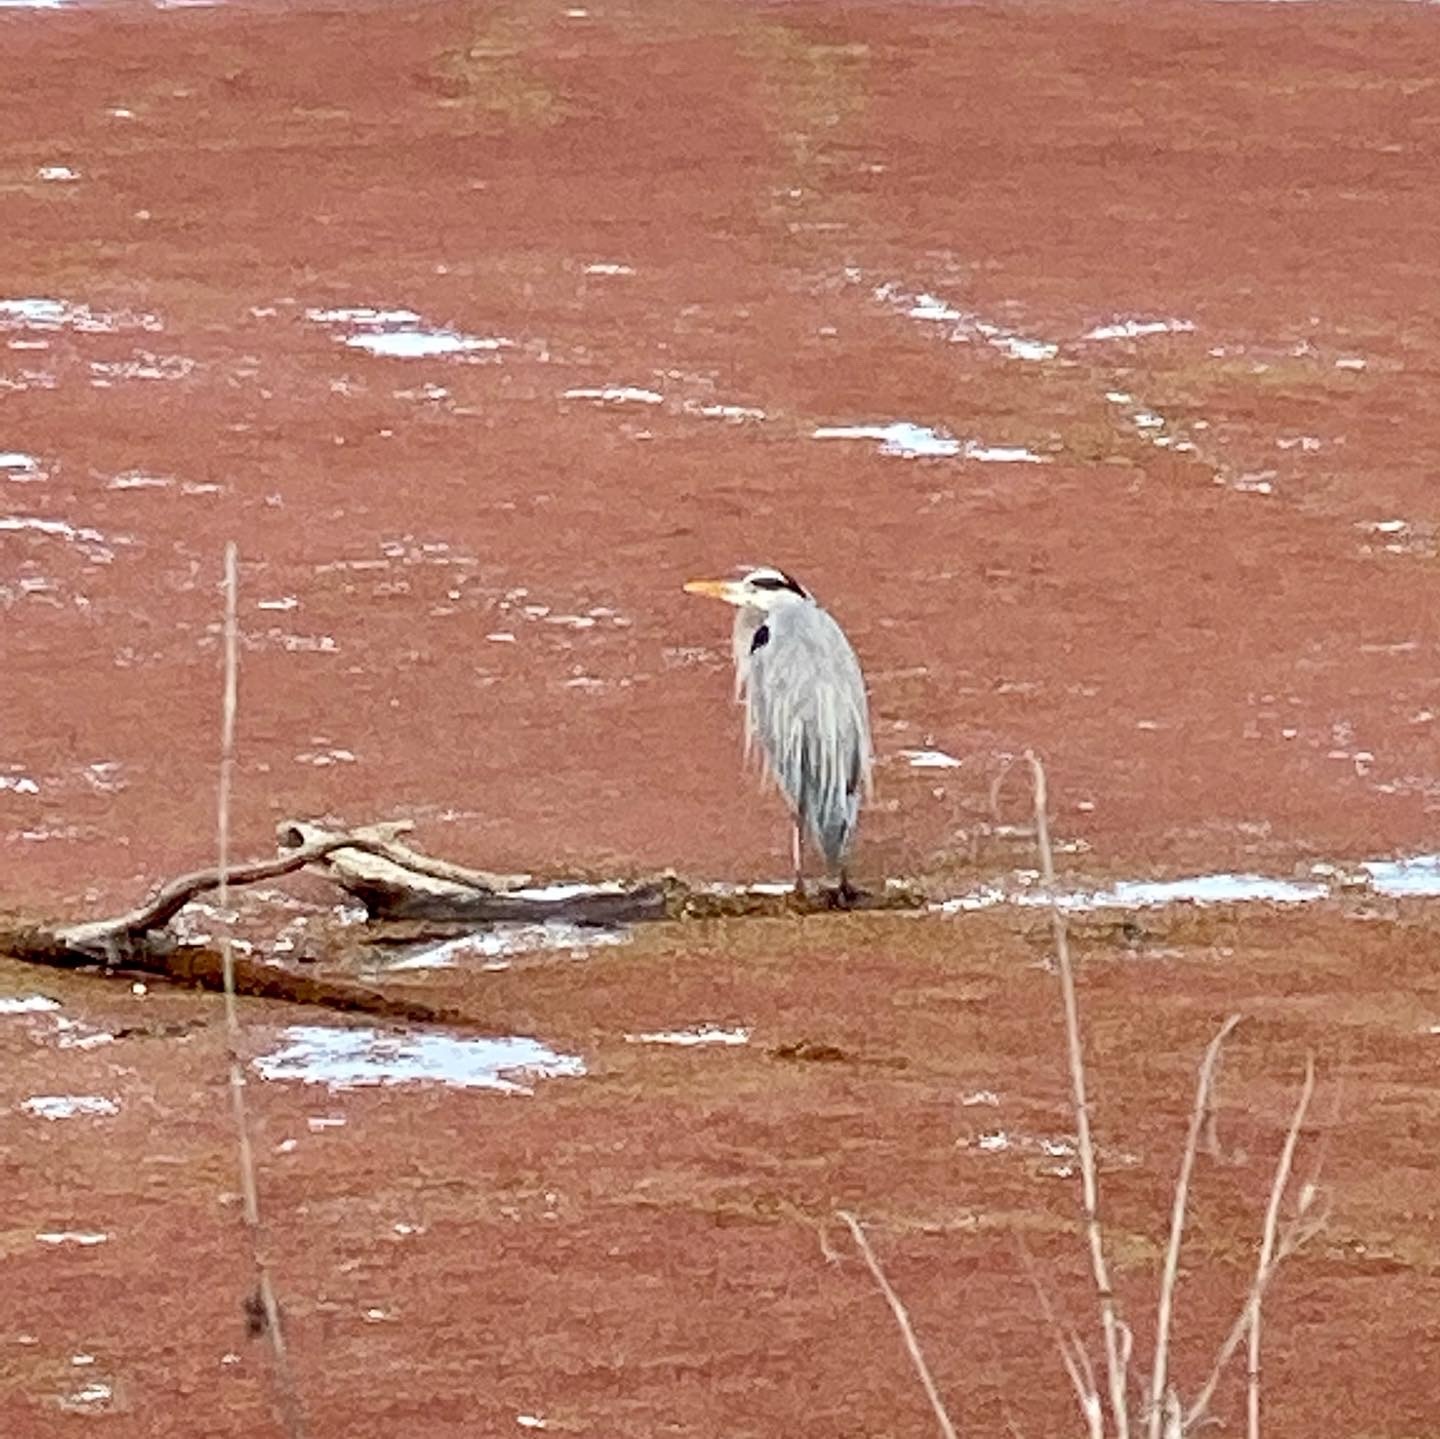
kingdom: Animalia
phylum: Chordata
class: Aves
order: Pelecaniformes
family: Ardeidae
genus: Ardea
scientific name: Ardea herodias
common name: Great blue heron
